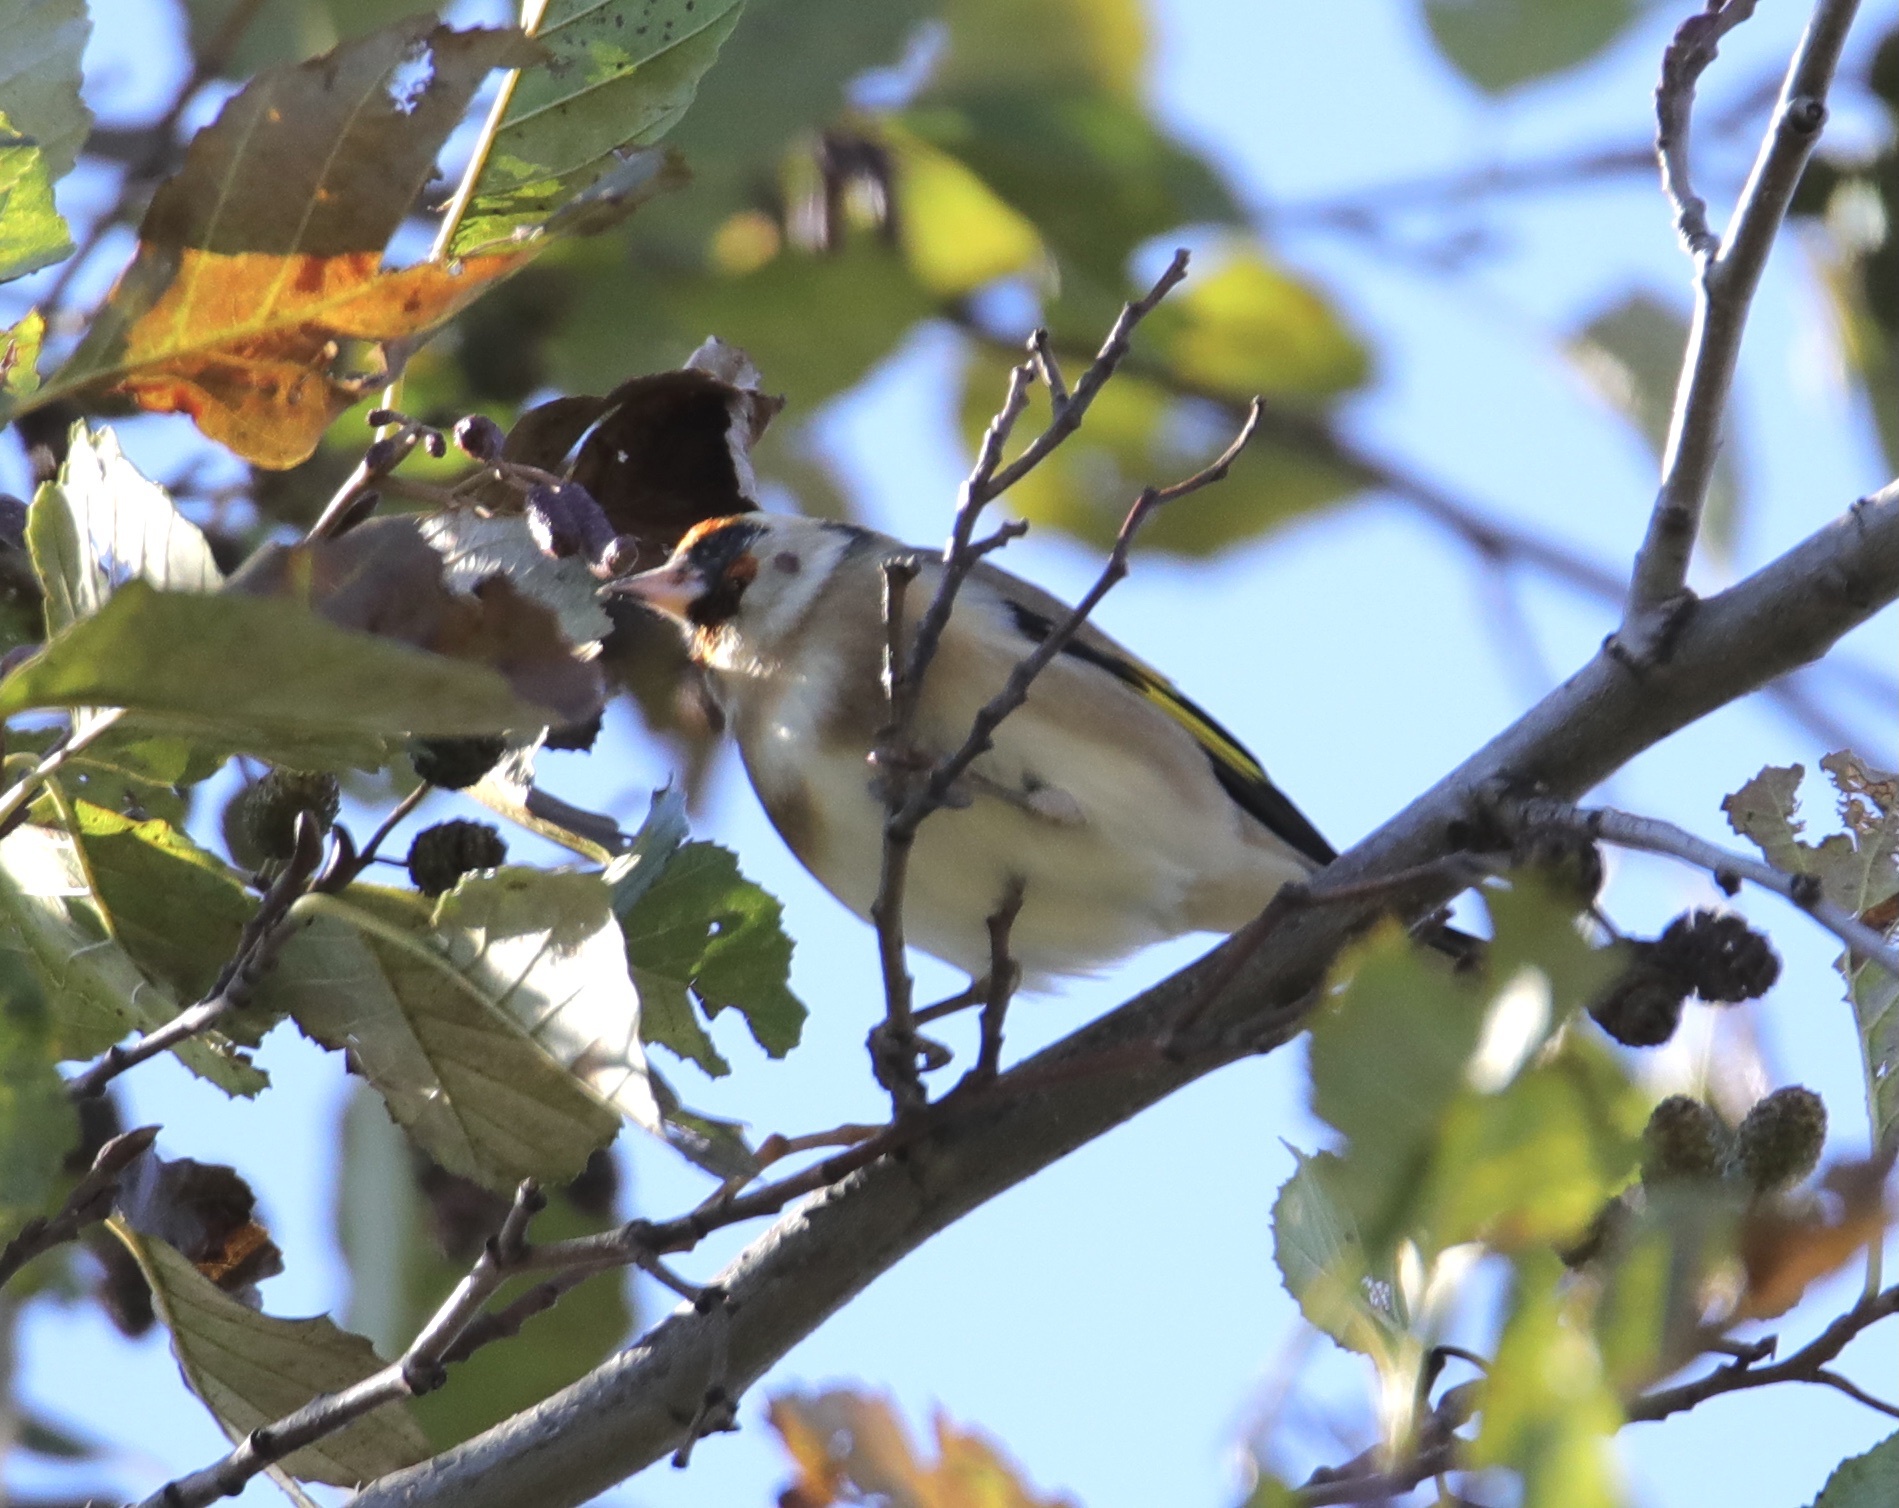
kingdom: Animalia
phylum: Chordata
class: Aves
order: Passeriformes
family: Fringillidae
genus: Carduelis
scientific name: Carduelis carduelis
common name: European goldfinch
